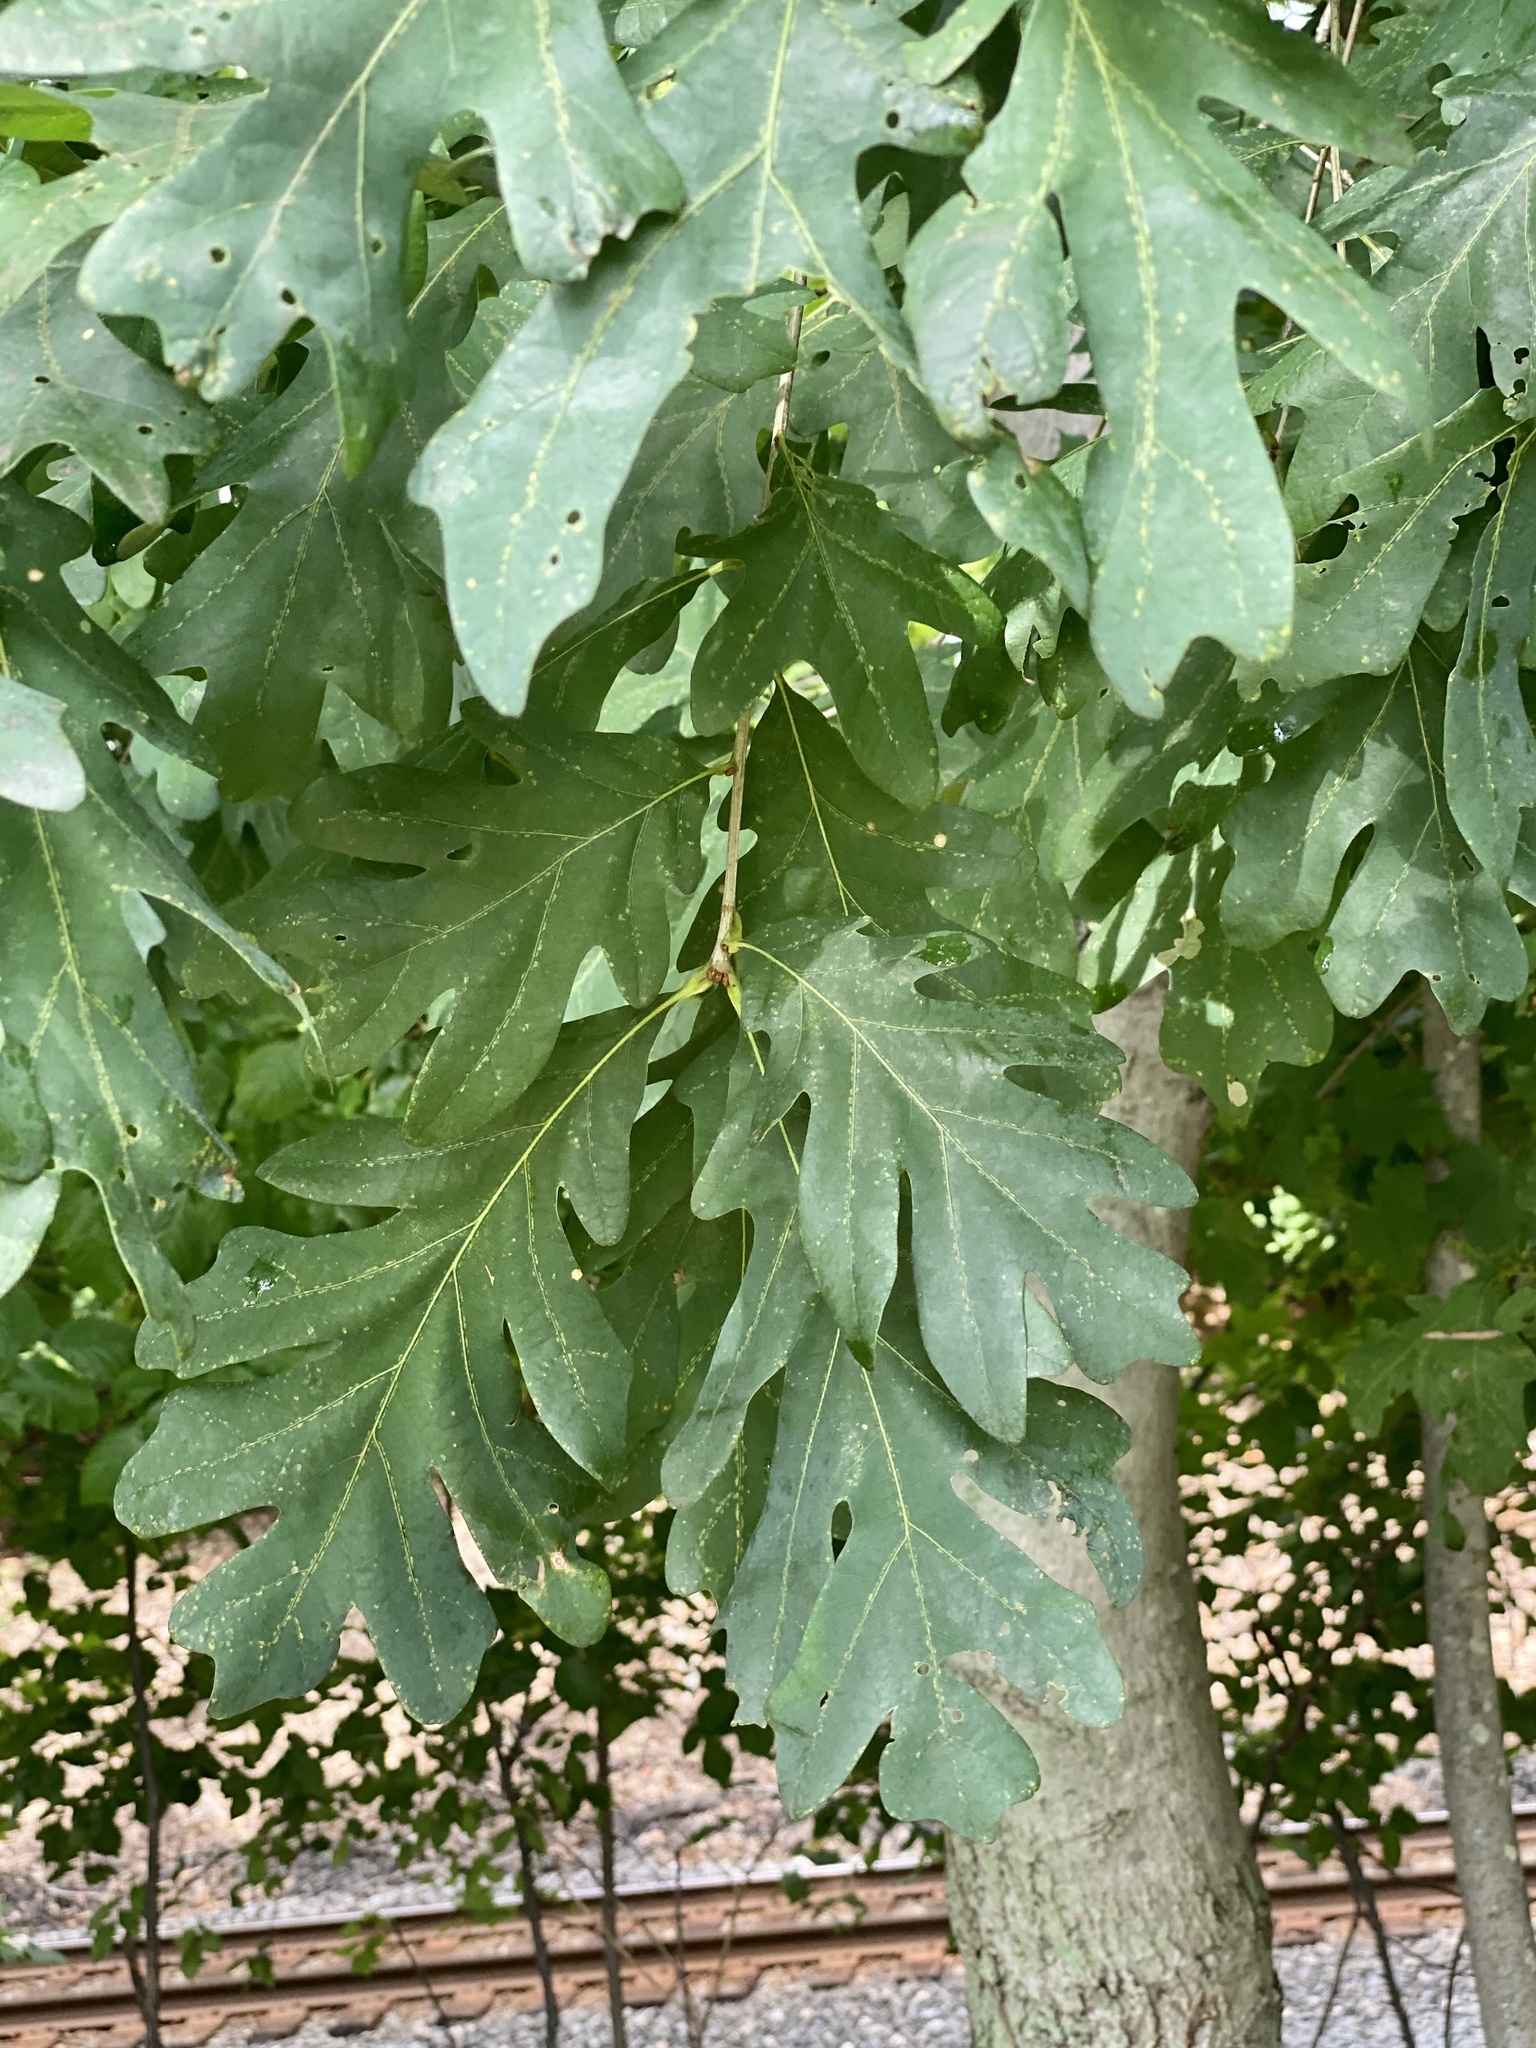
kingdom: Plantae
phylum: Tracheophyta
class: Magnoliopsida
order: Fagales
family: Fagaceae
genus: Quercus
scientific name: Quercus alba
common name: White oak
